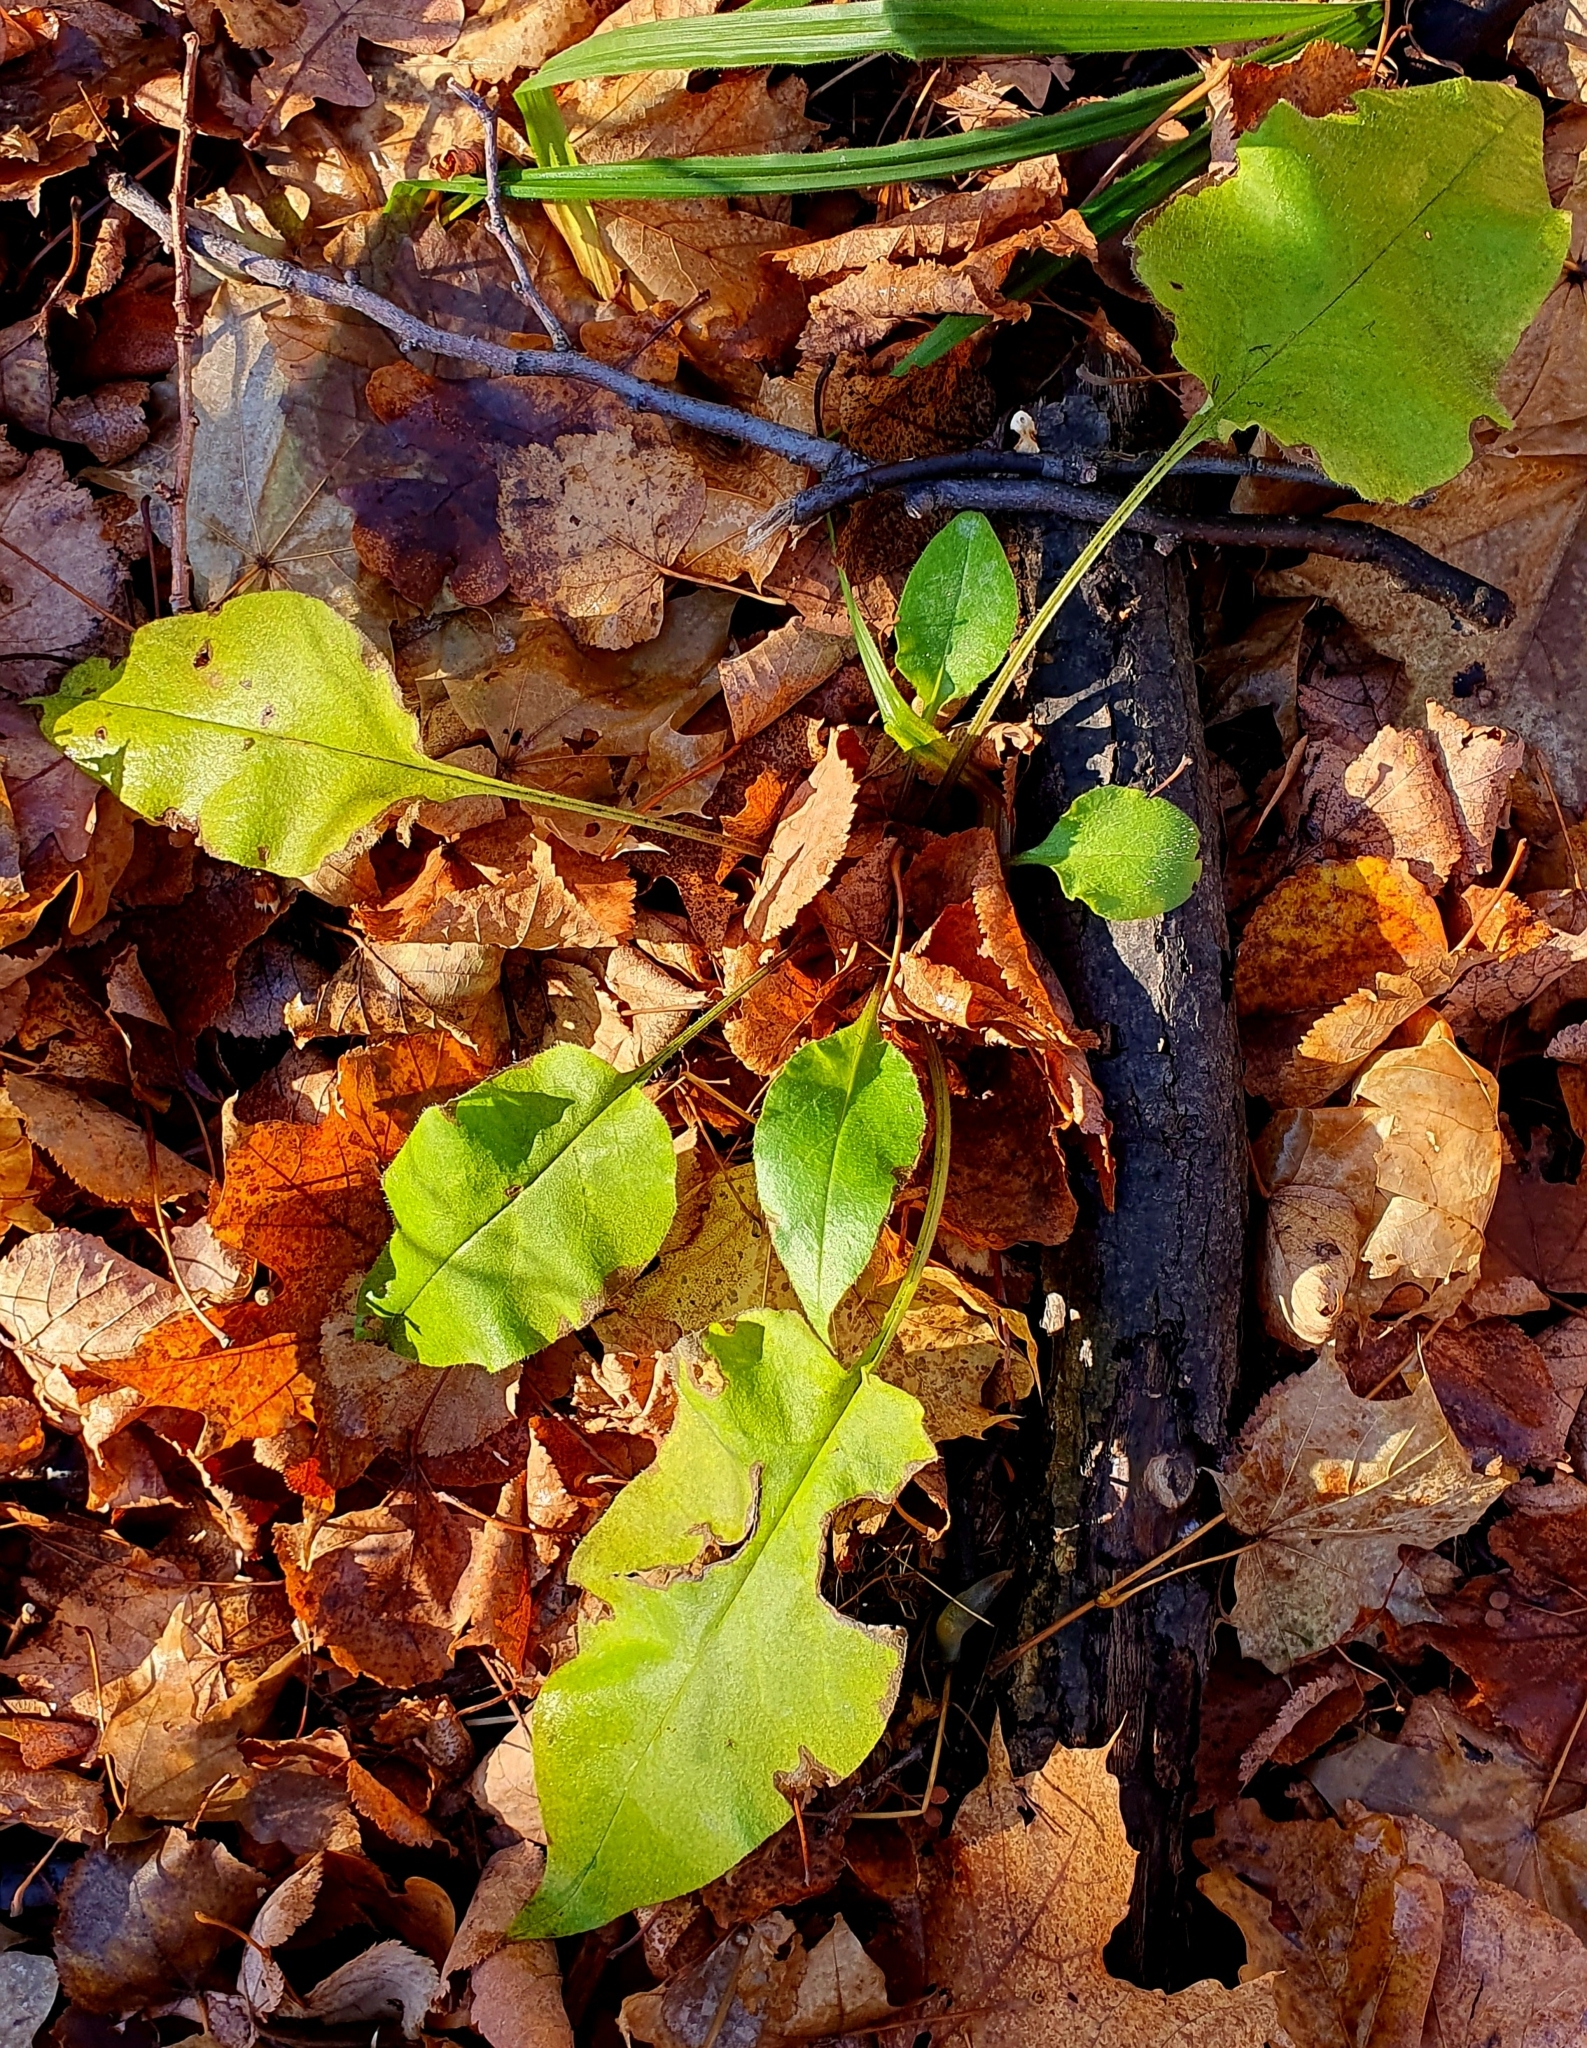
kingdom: Plantae
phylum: Tracheophyta
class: Magnoliopsida
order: Boraginales
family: Boraginaceae
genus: Pulmonaria
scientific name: Pulmonaria obscura
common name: Suffolk lungwort
